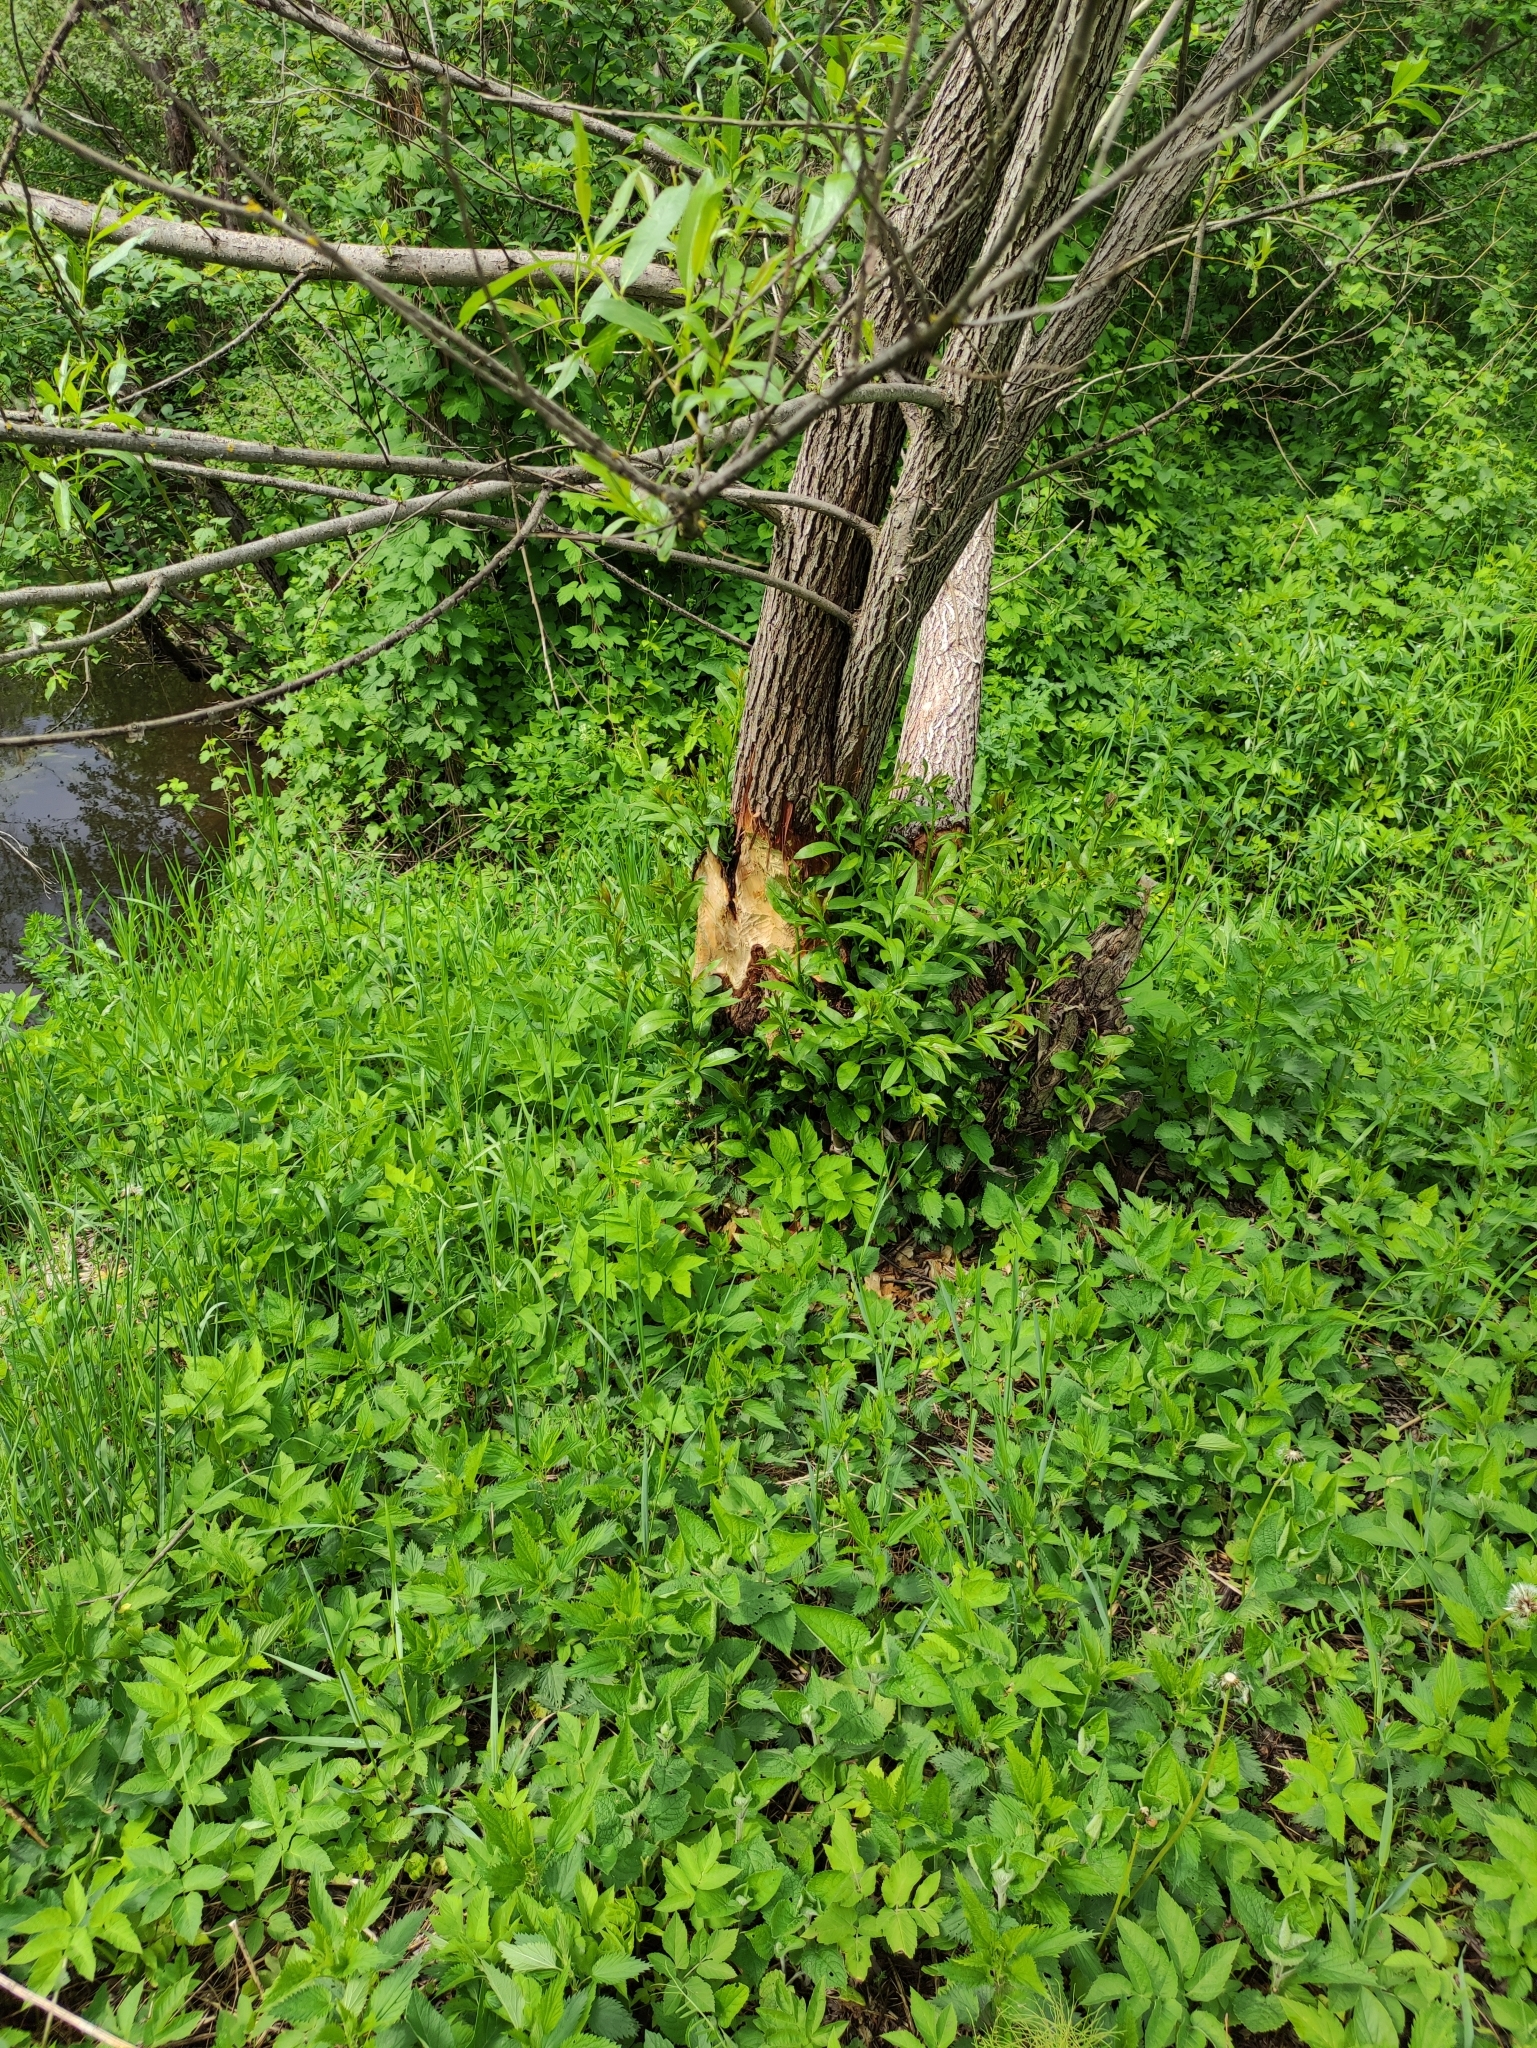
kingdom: Animalia
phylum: Chordata
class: Mammalia
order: Rodentia
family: Castoridae
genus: Castor
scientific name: Castor fiber
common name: Eurasian beaver
